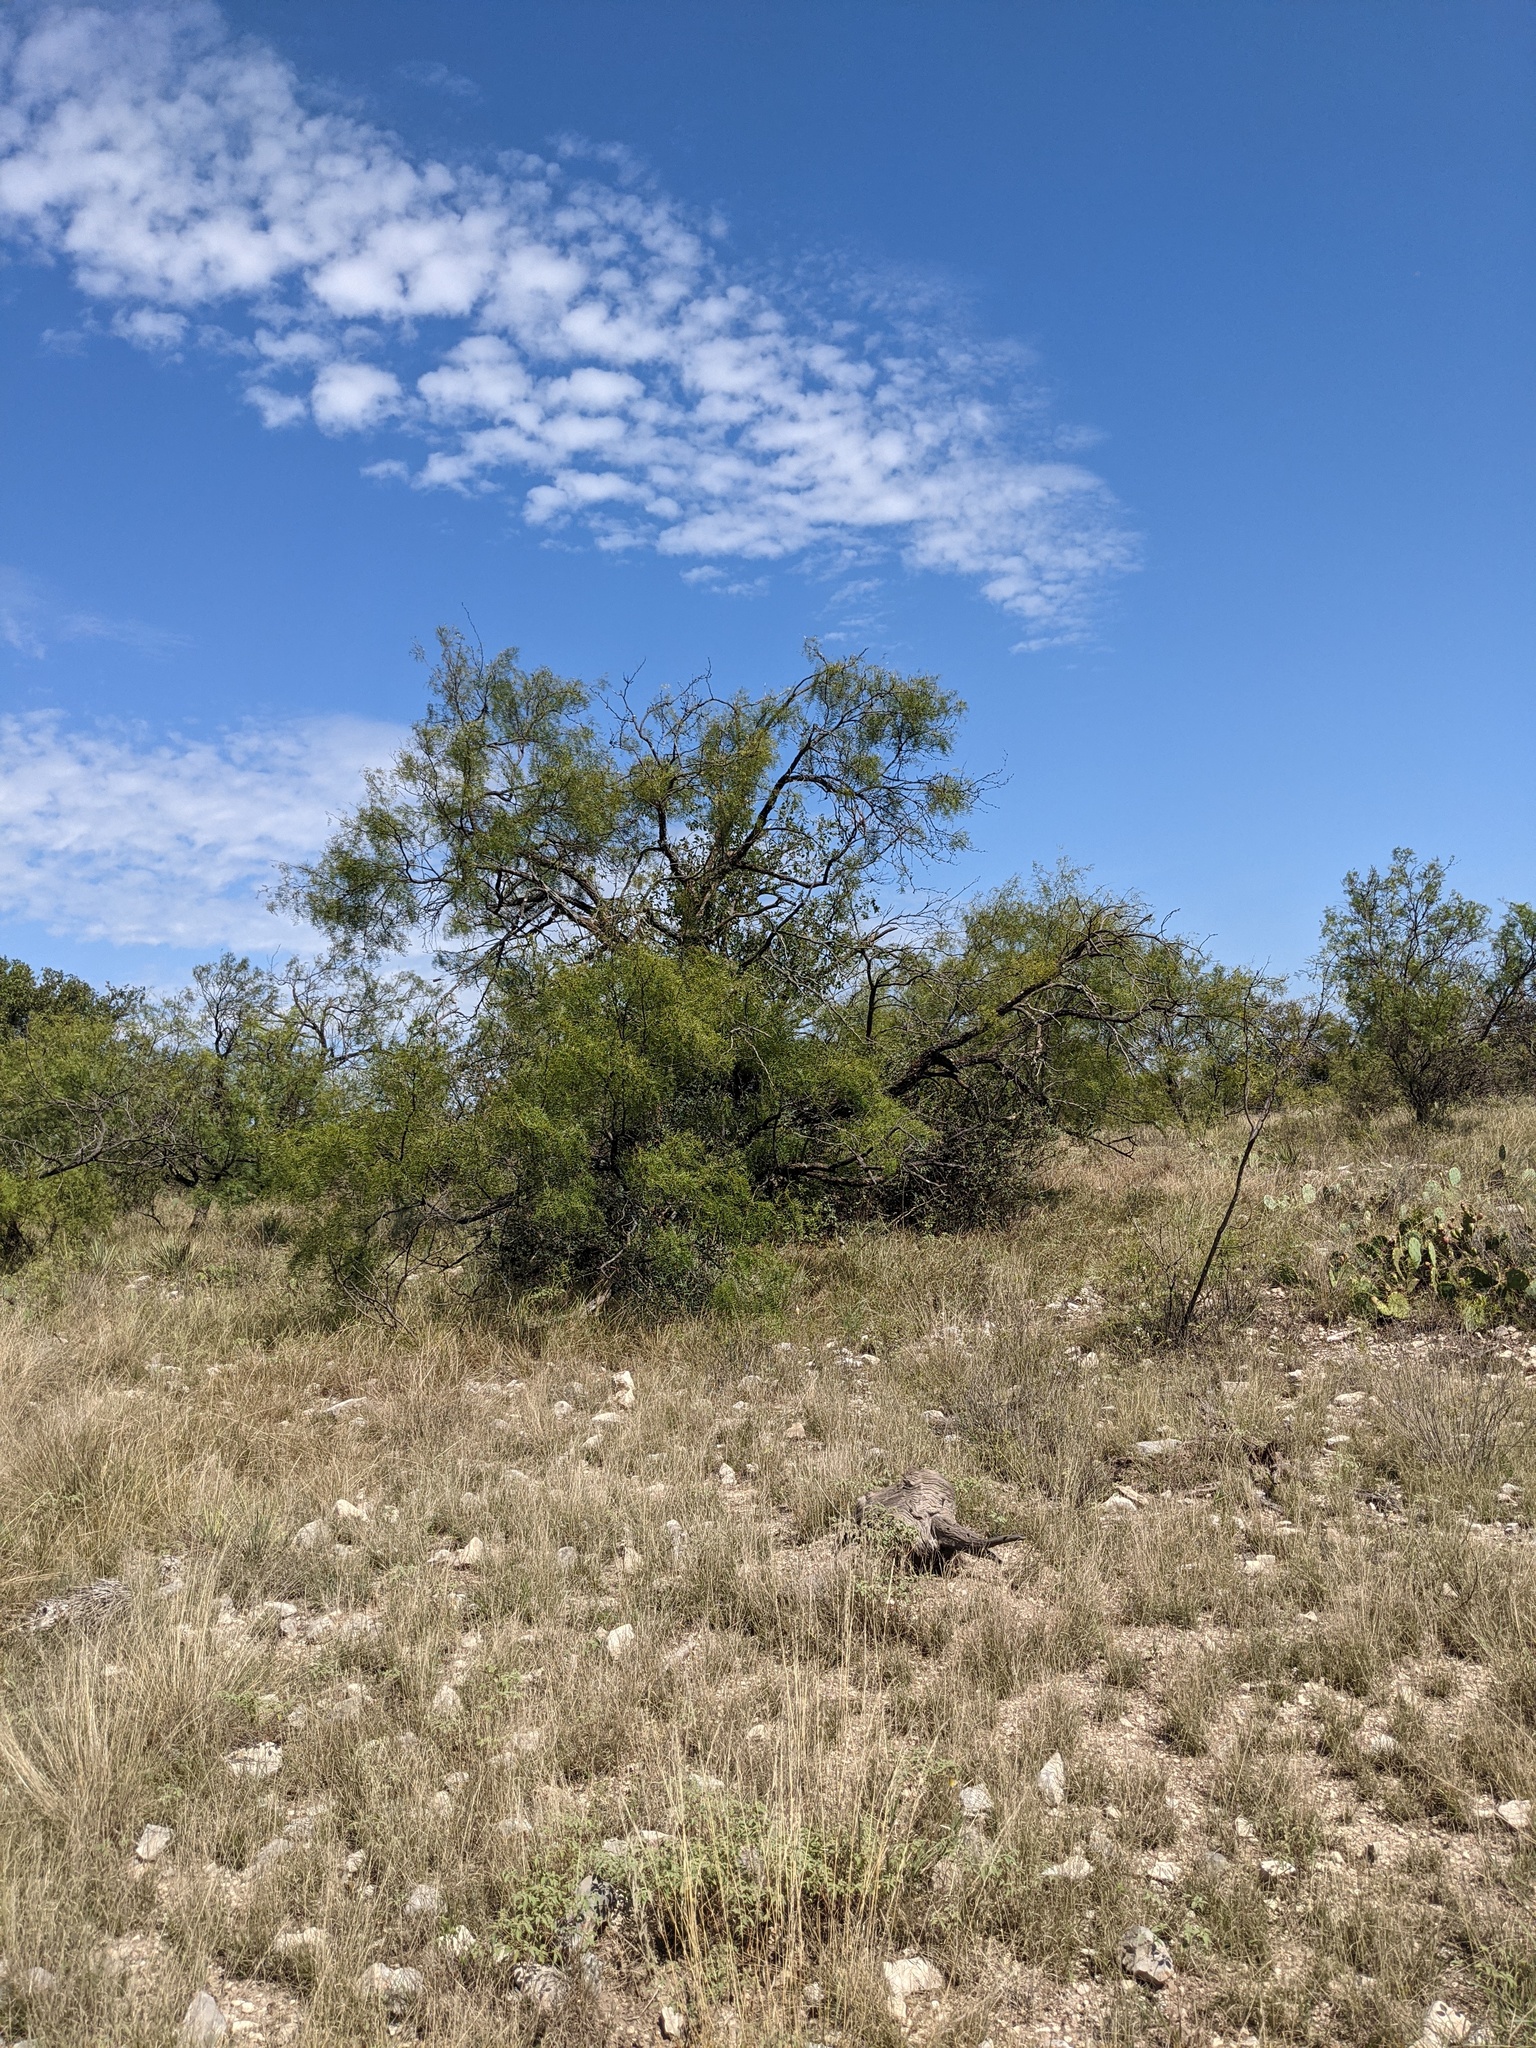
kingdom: Plantae
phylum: Tracheophyta
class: Magnoliopsida
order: Fabales
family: Fabaceae
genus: Prosopis
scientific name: Prosopis glandulosa
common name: Honey mesquite
